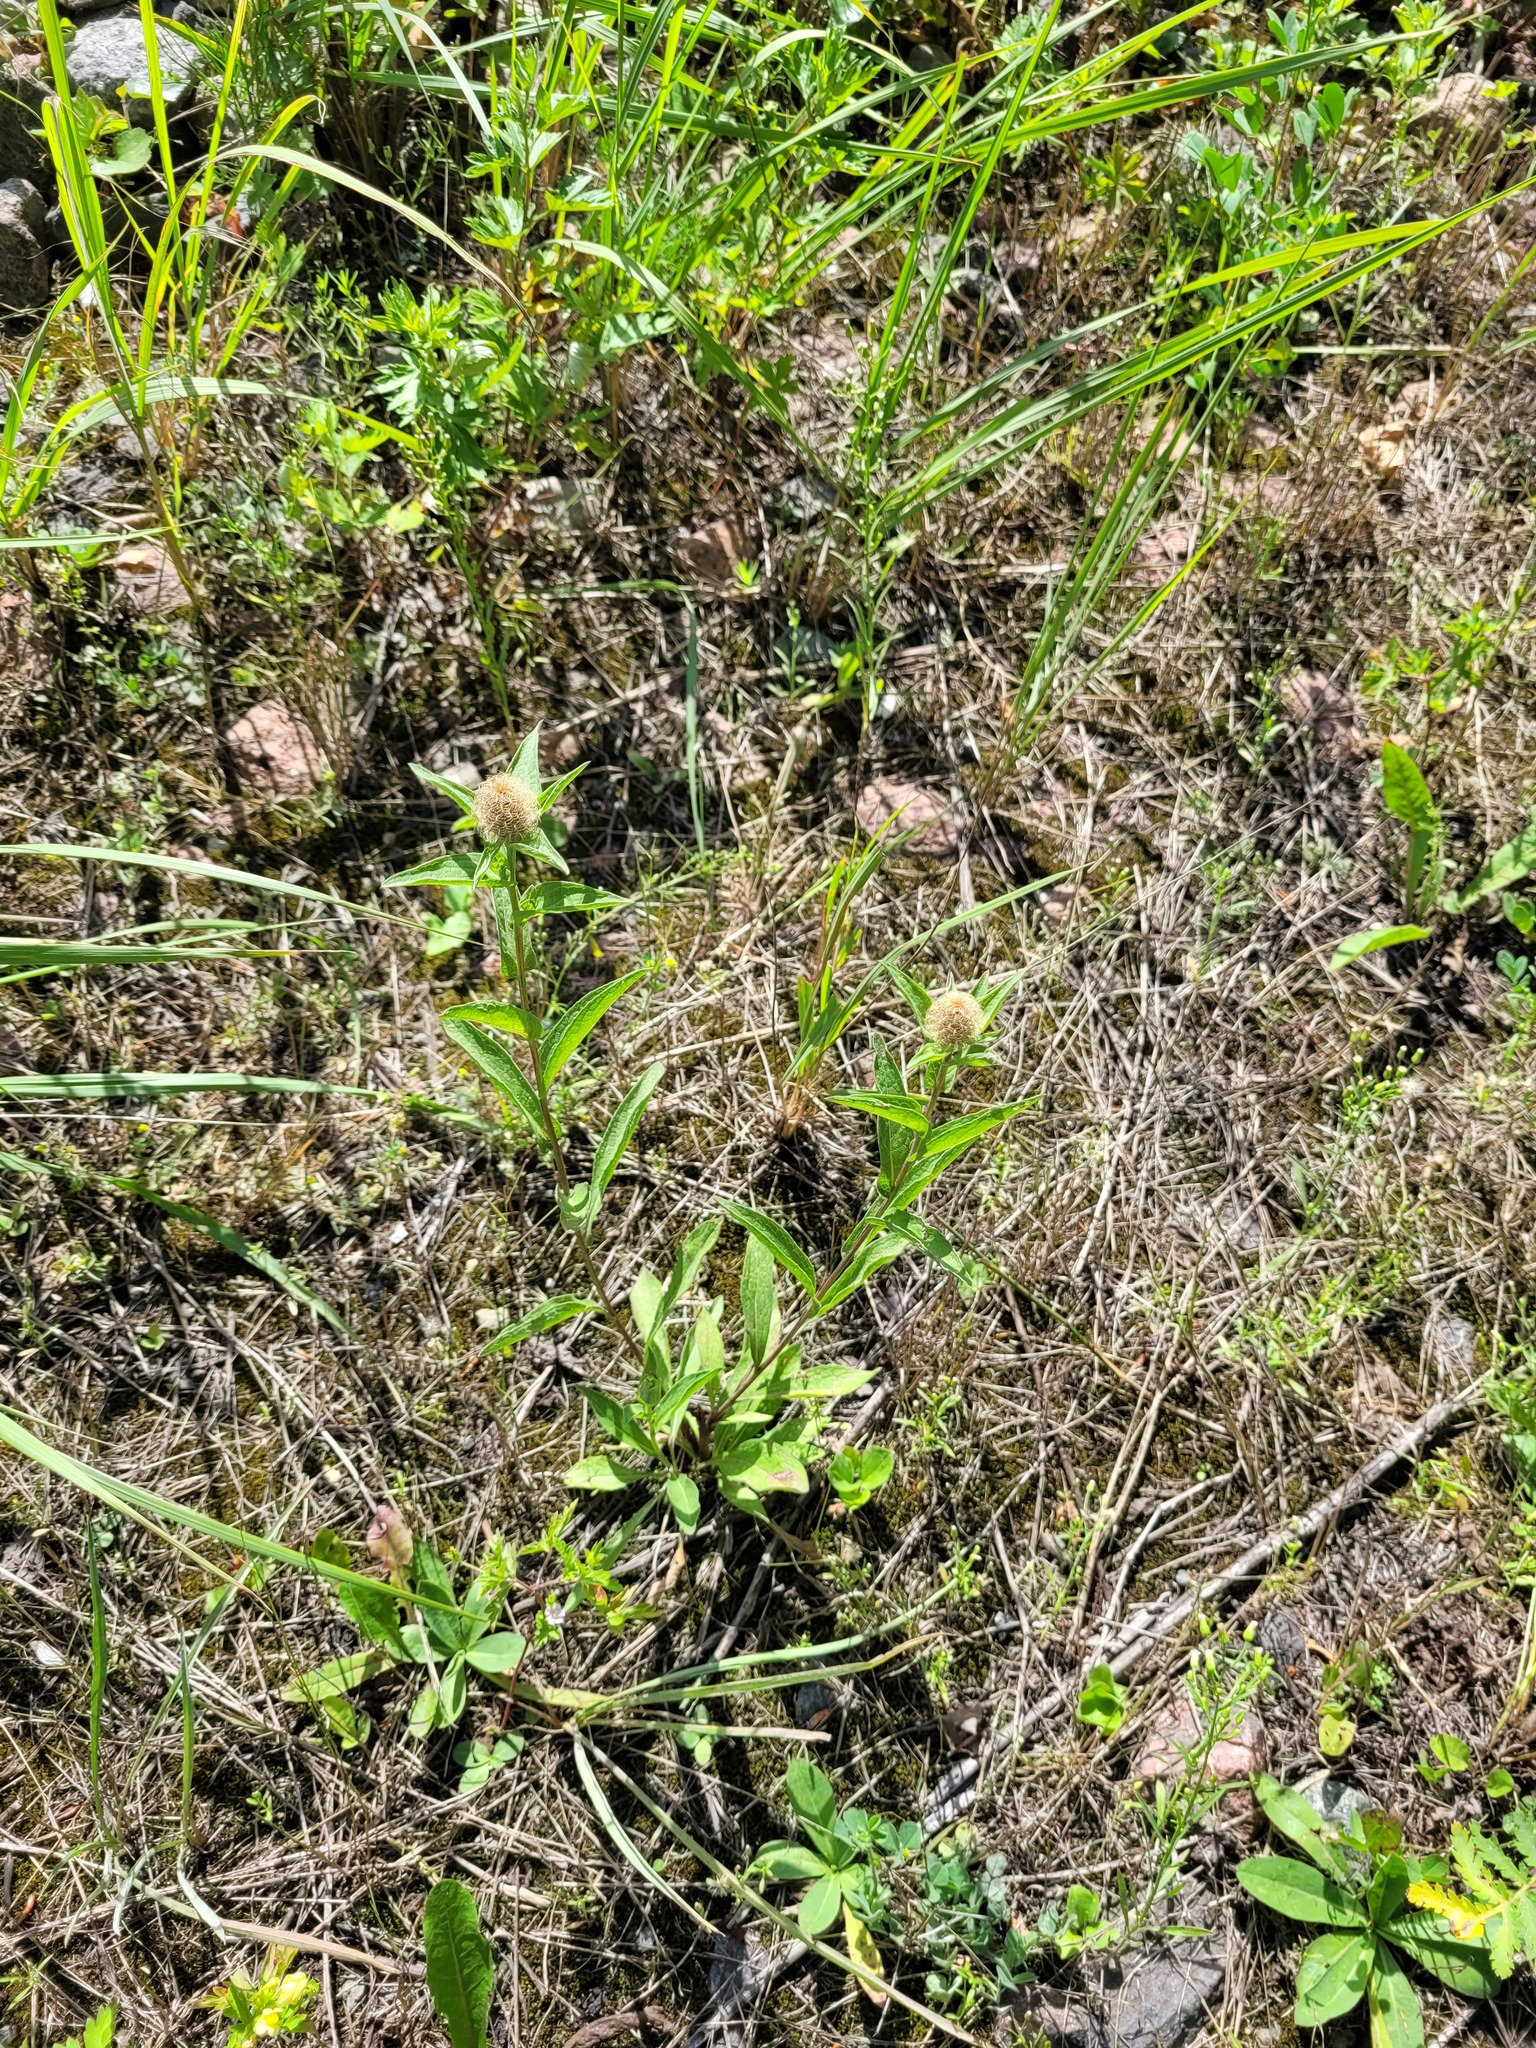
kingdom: Plantae
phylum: Tracheophyta
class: Magnoliopsida
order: Asterales
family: Asteraceae
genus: Centaurea
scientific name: Centaurea pseudophrygia
